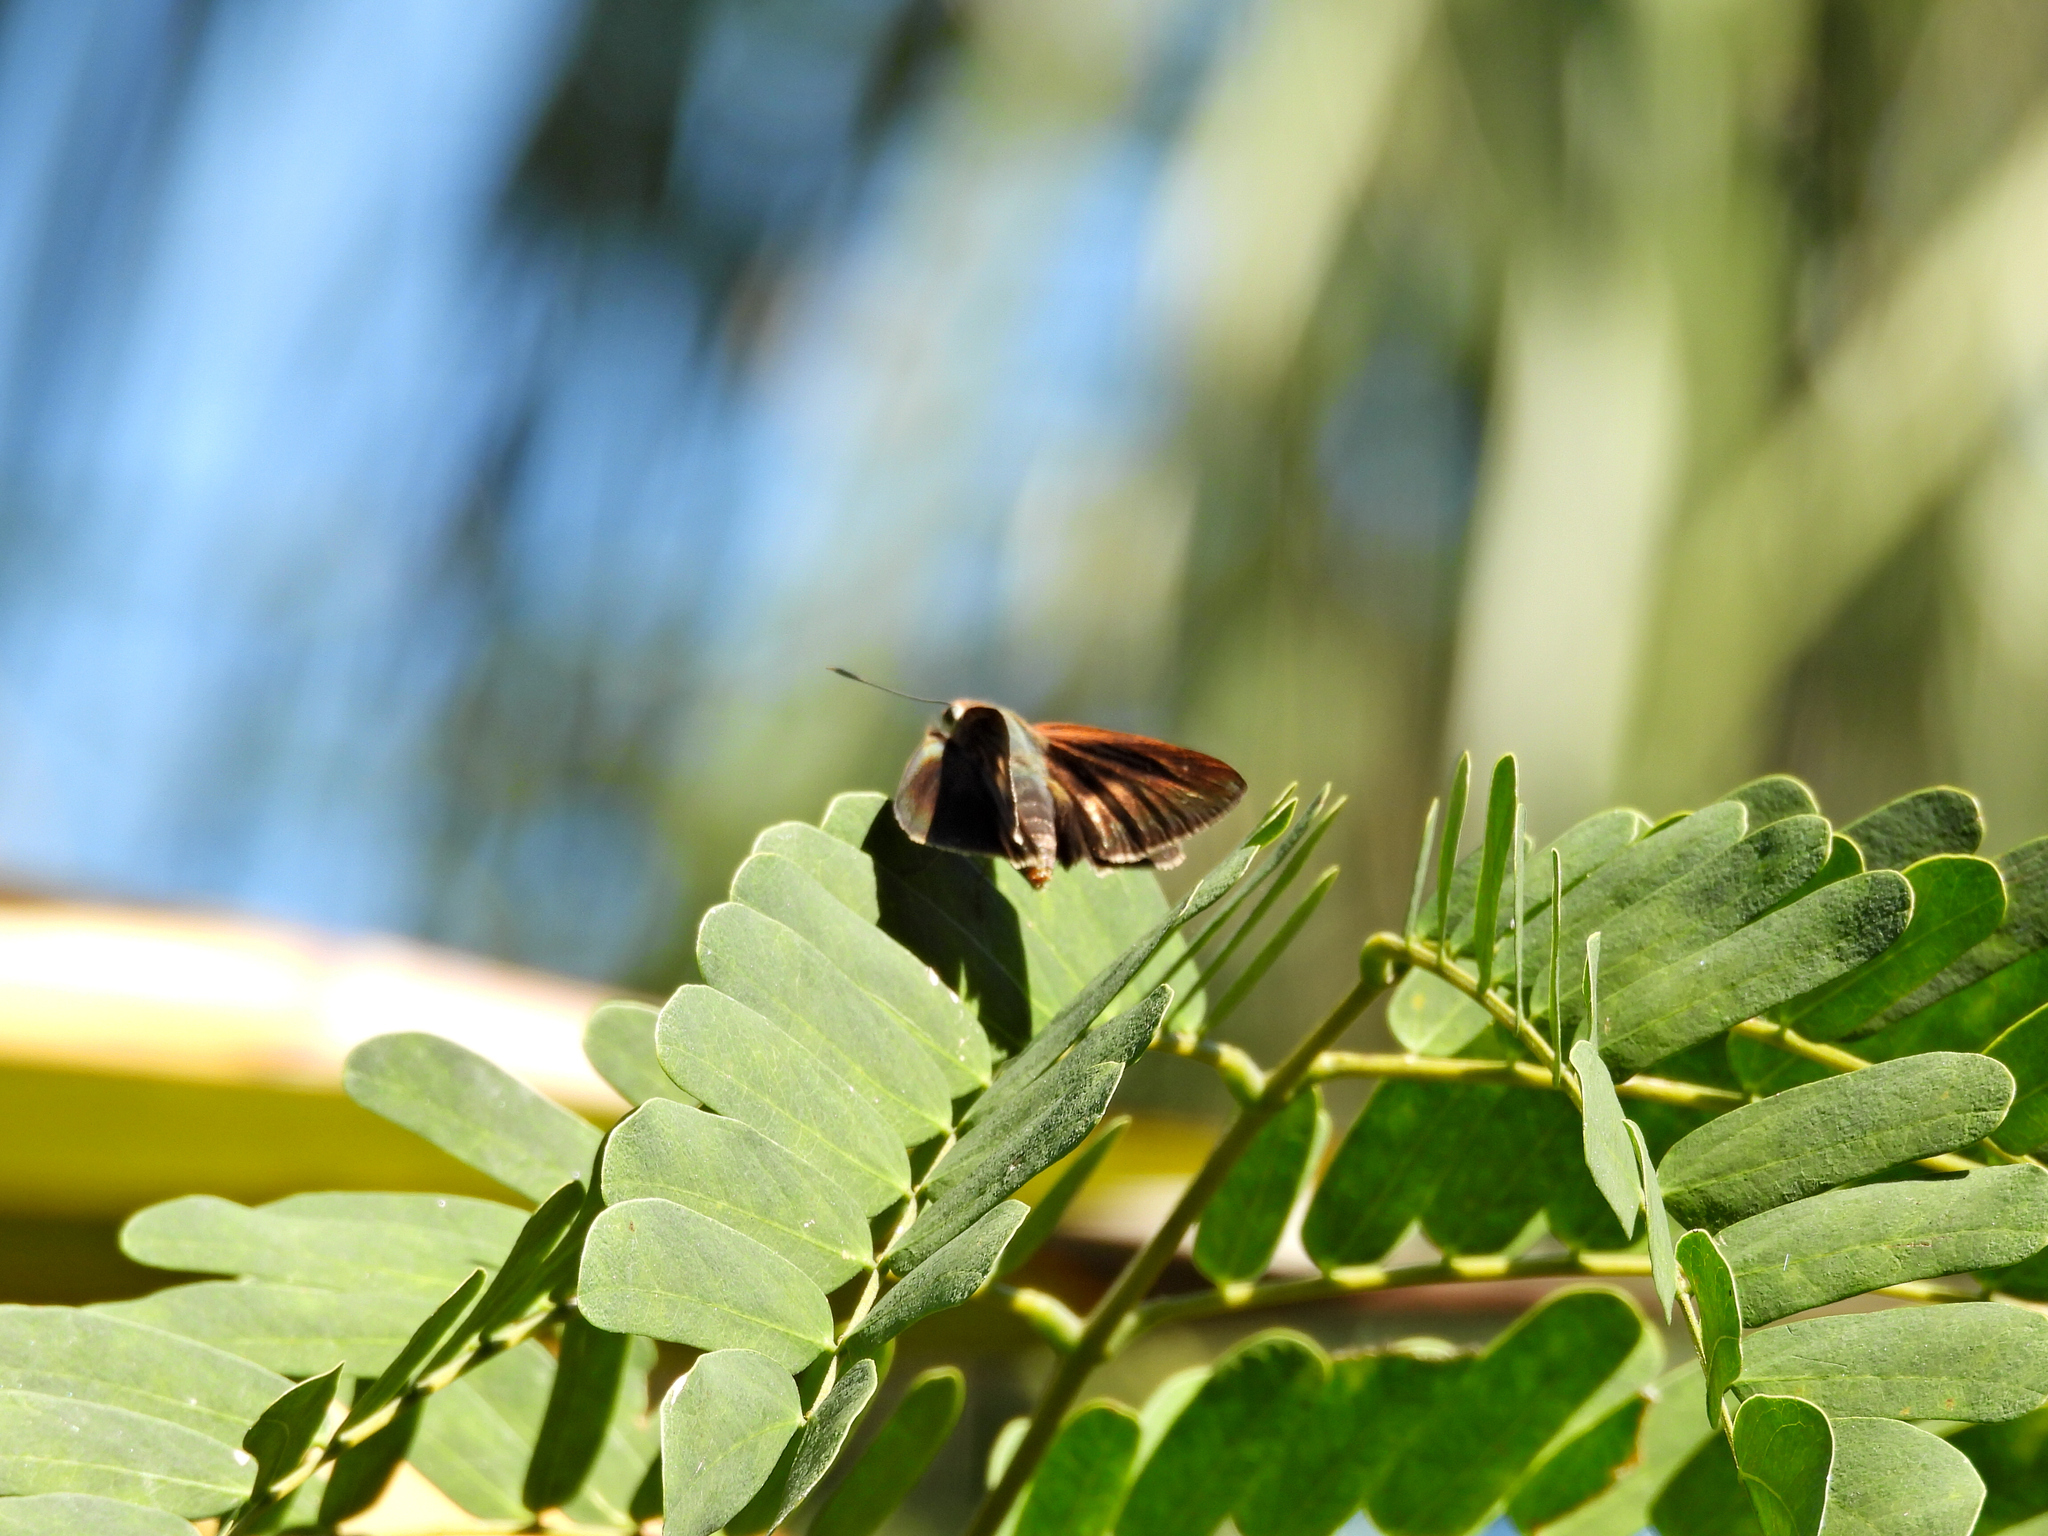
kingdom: Animalia
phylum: Arthropoda
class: Insecta
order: Lepidoptera
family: Hesperiidae
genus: Asbolis
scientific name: Asbolis capucinus
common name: Monk skipper
